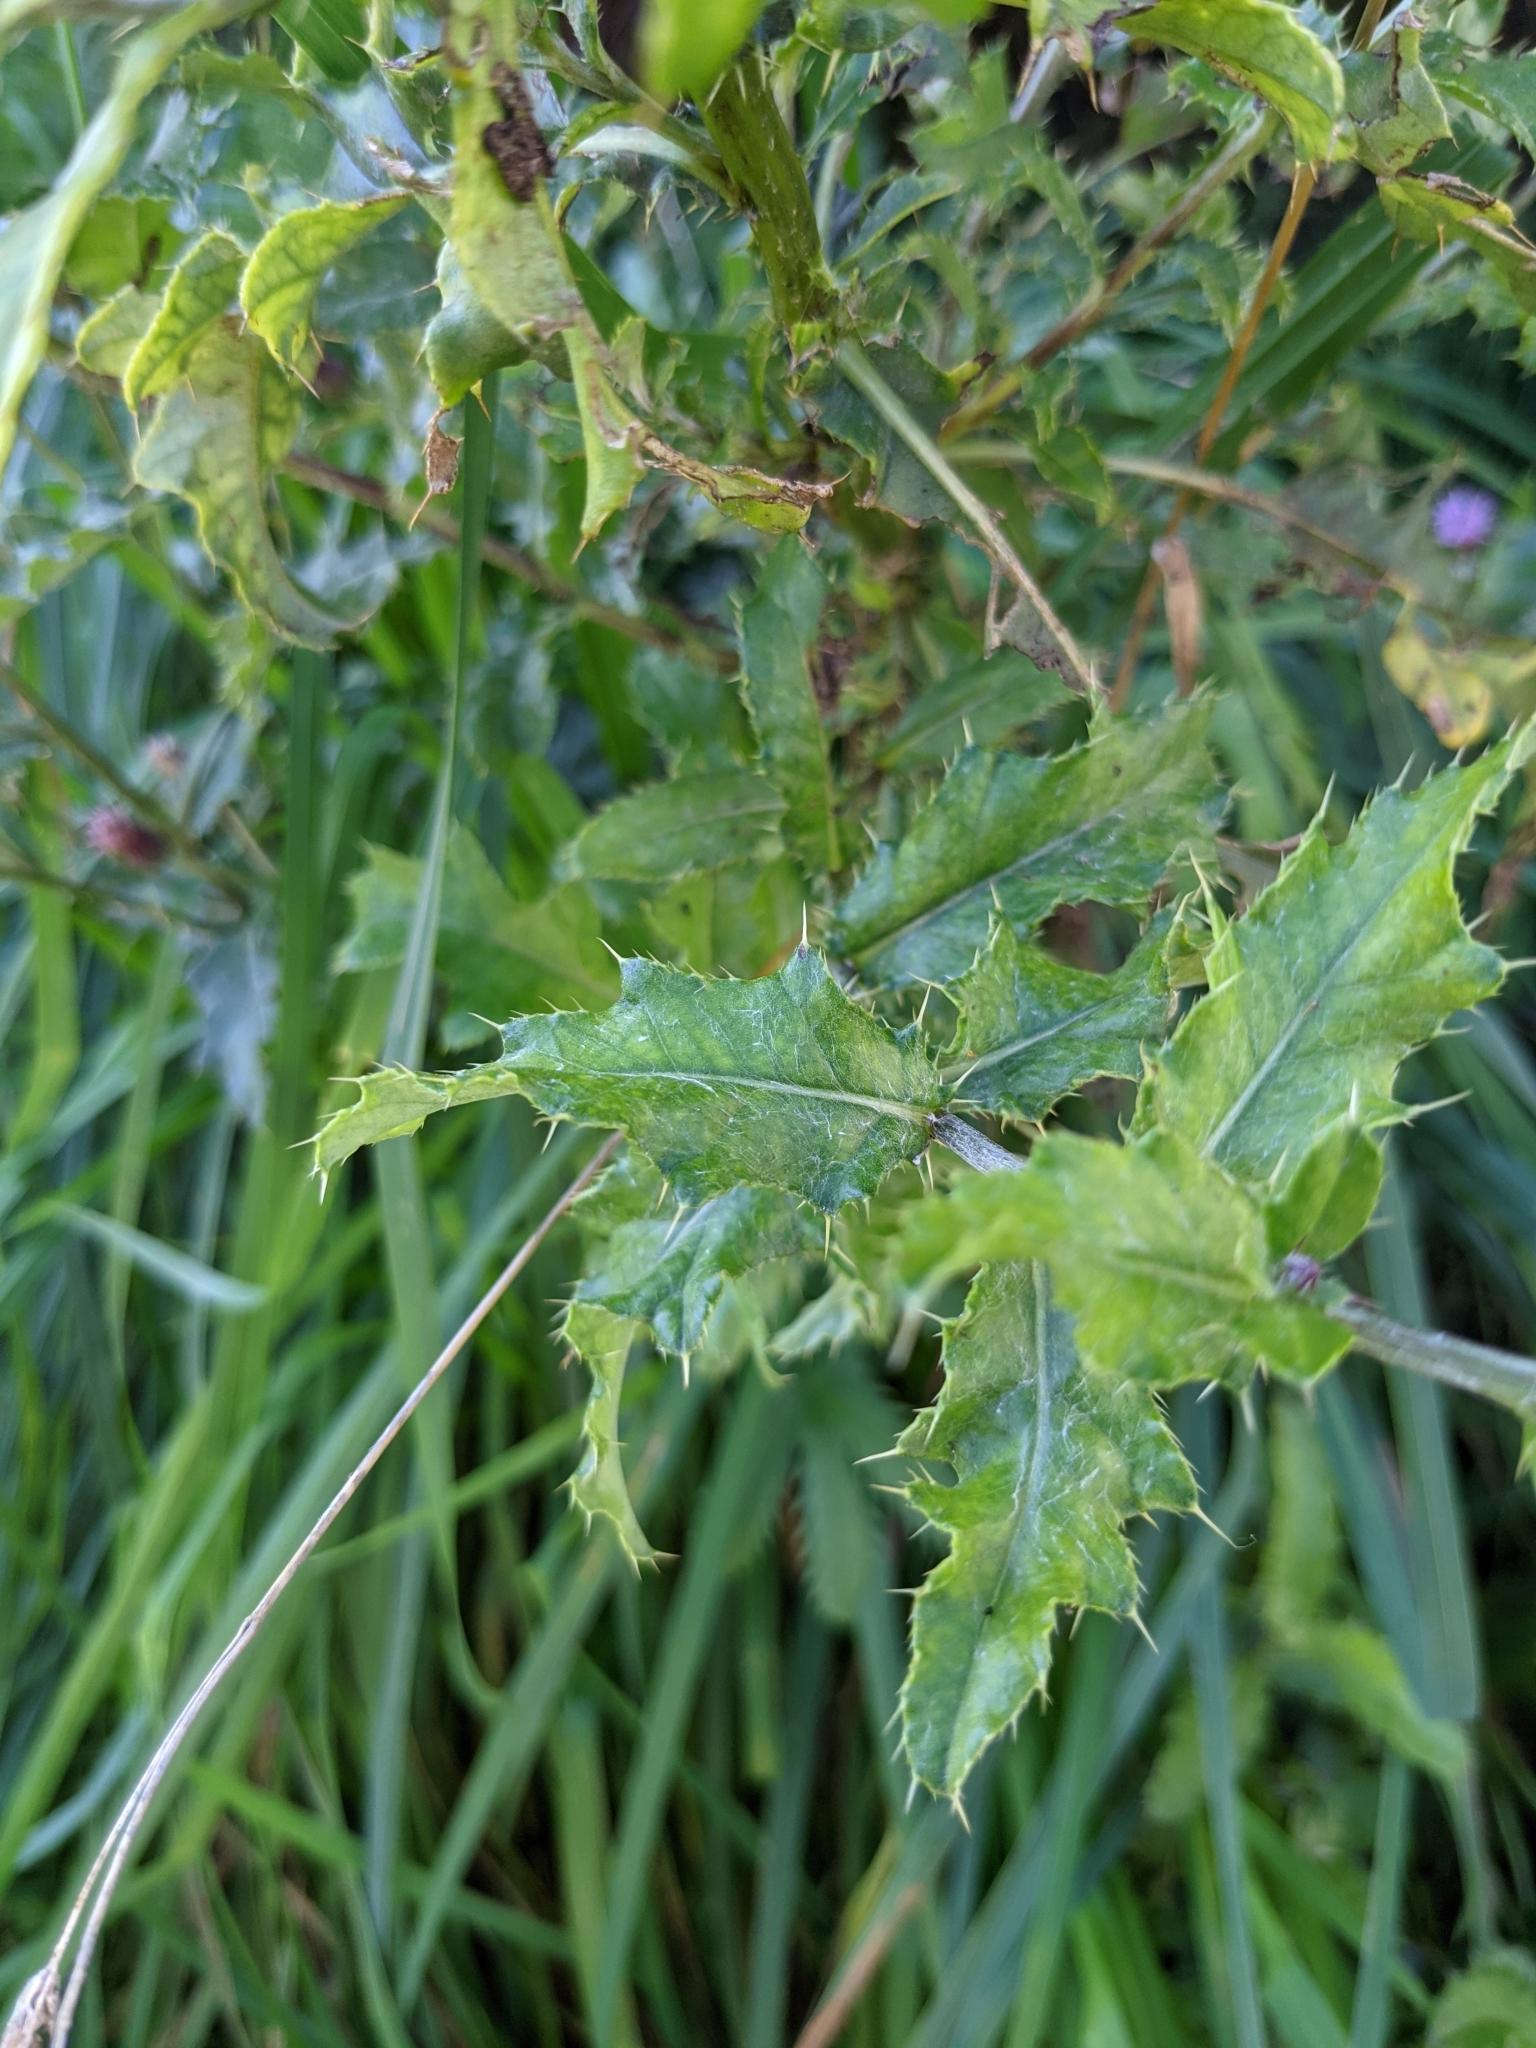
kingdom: Plantae
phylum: Tracheophyta
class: Magnoliopsida
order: Asterales
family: Asteraceae
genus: Cirsium
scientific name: Cirsium arvense
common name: Creeping thistle
